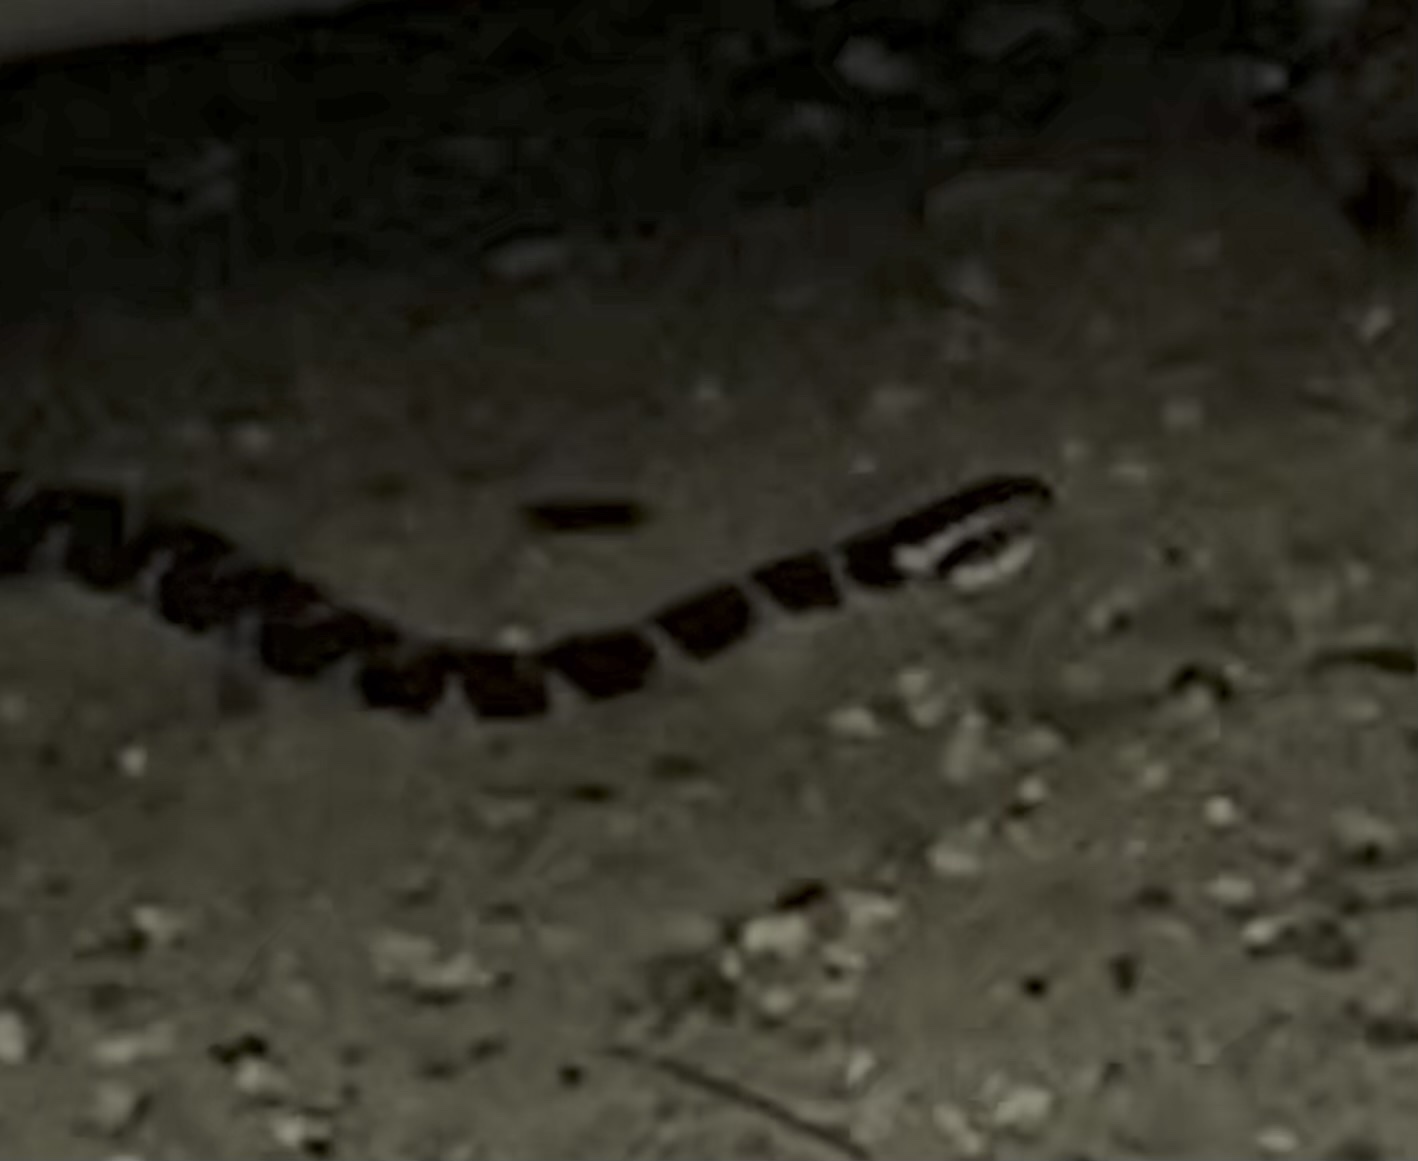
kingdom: Animalia
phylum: Chordata
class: Squamata
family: Colubridae
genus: Nerodia
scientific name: Nerodia sipedon
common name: Northern water snake
